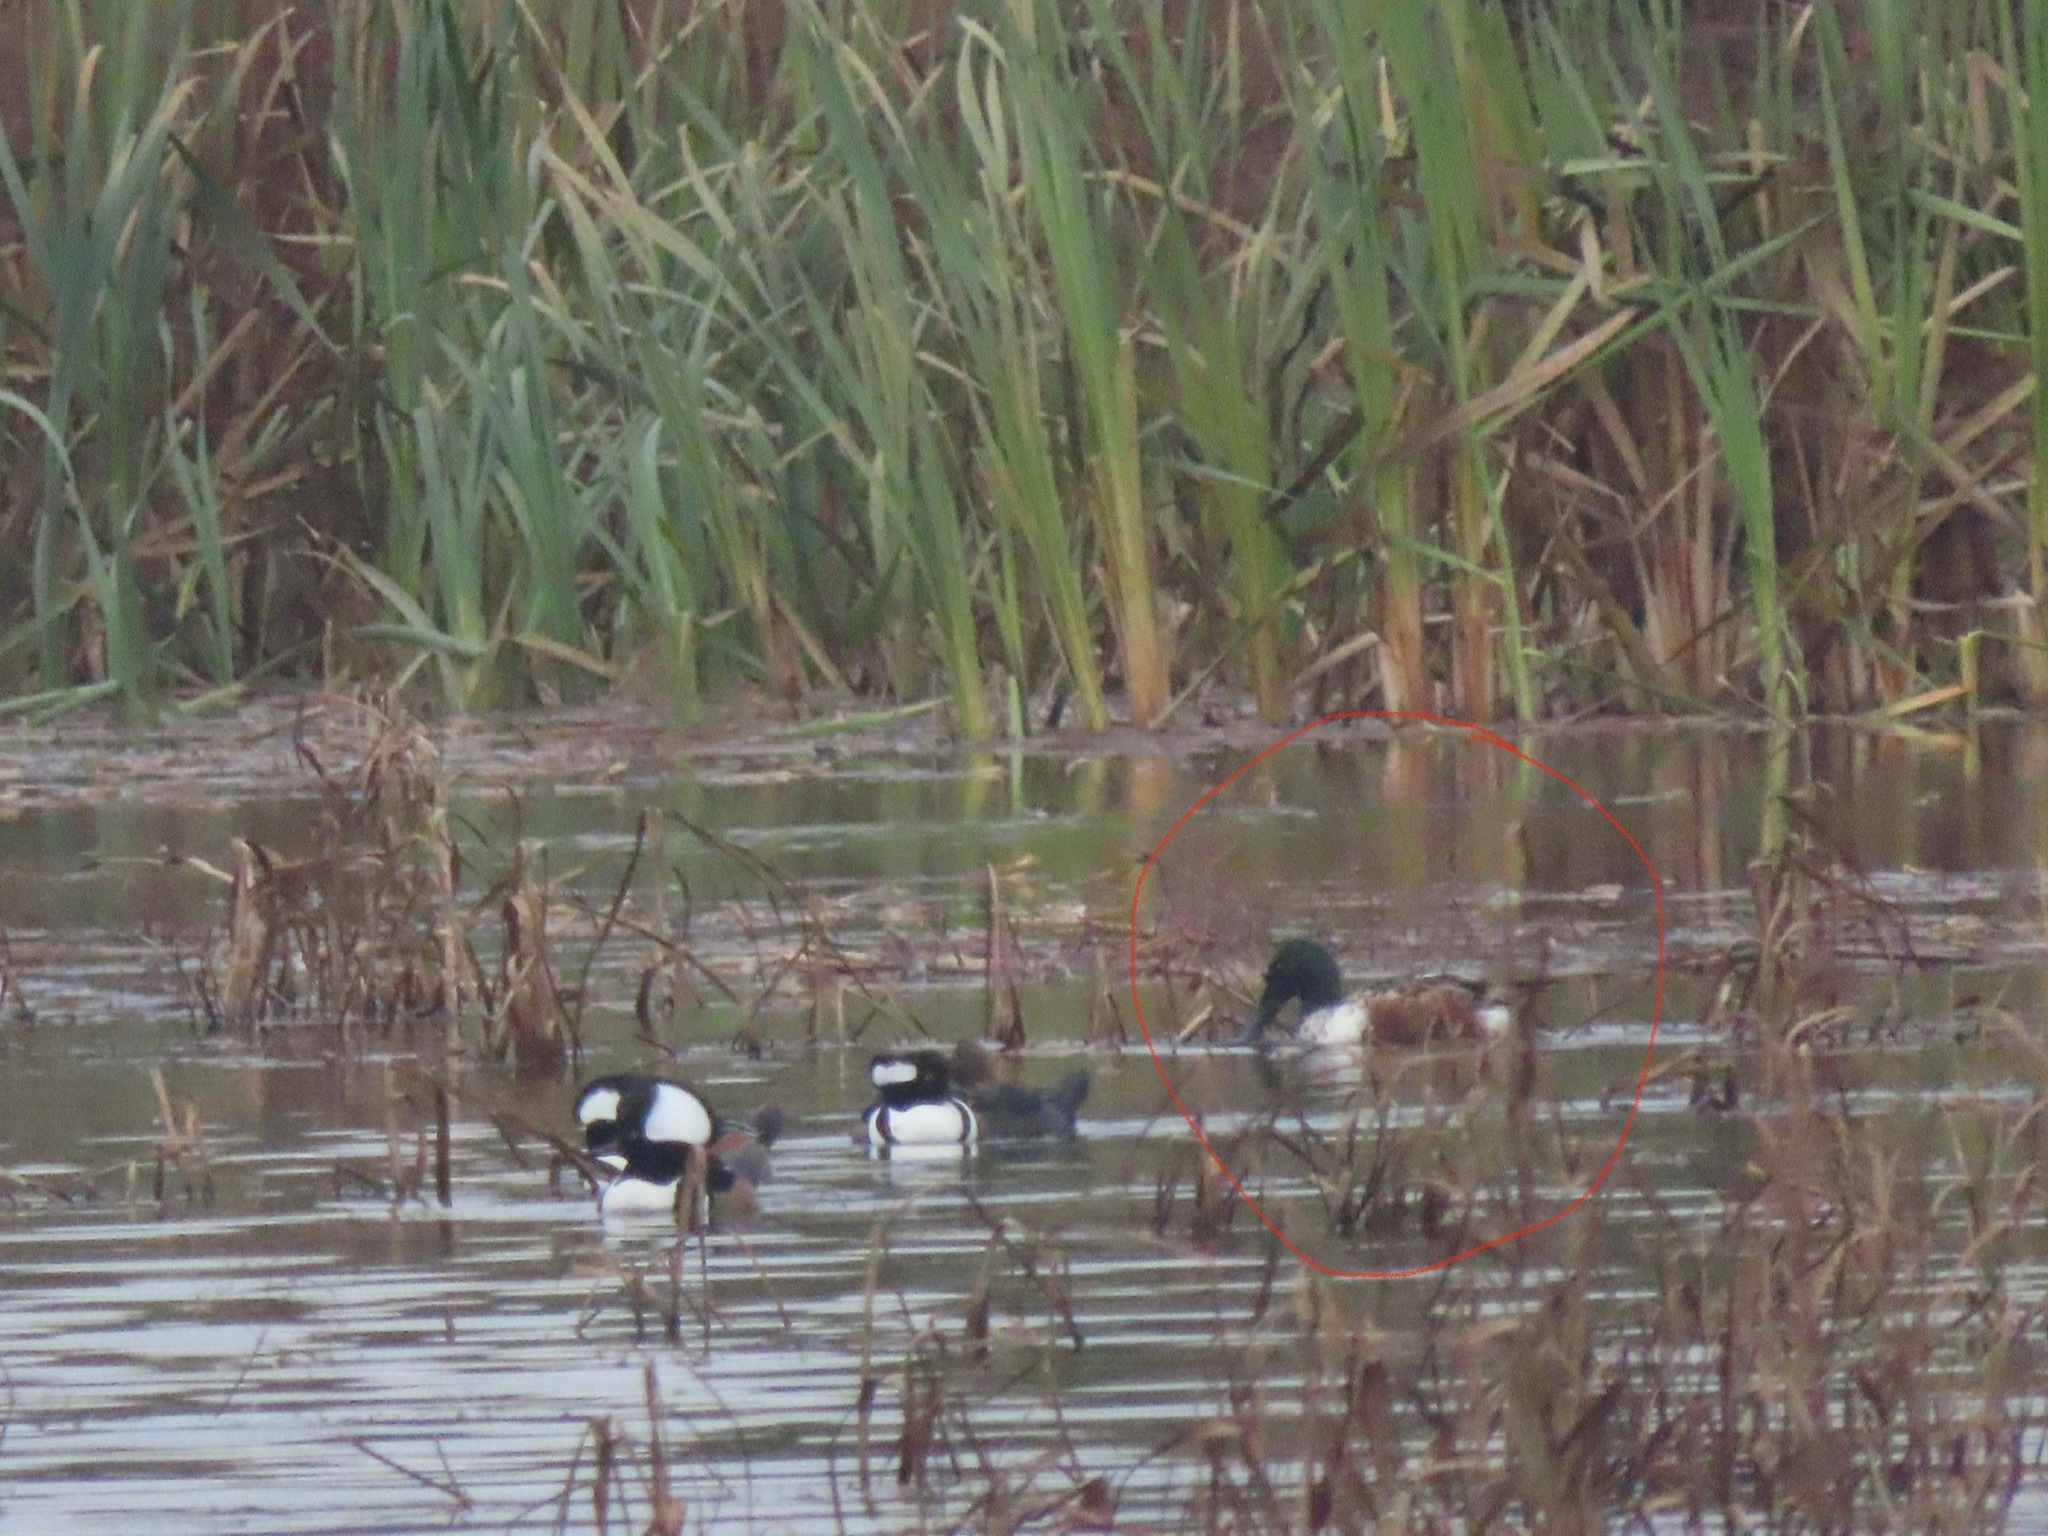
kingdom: Animalia
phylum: Chordata
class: Aves
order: Anseriformes
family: Anatidae
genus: Spatula
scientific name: Spatula clypeata
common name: Northern shoveler
